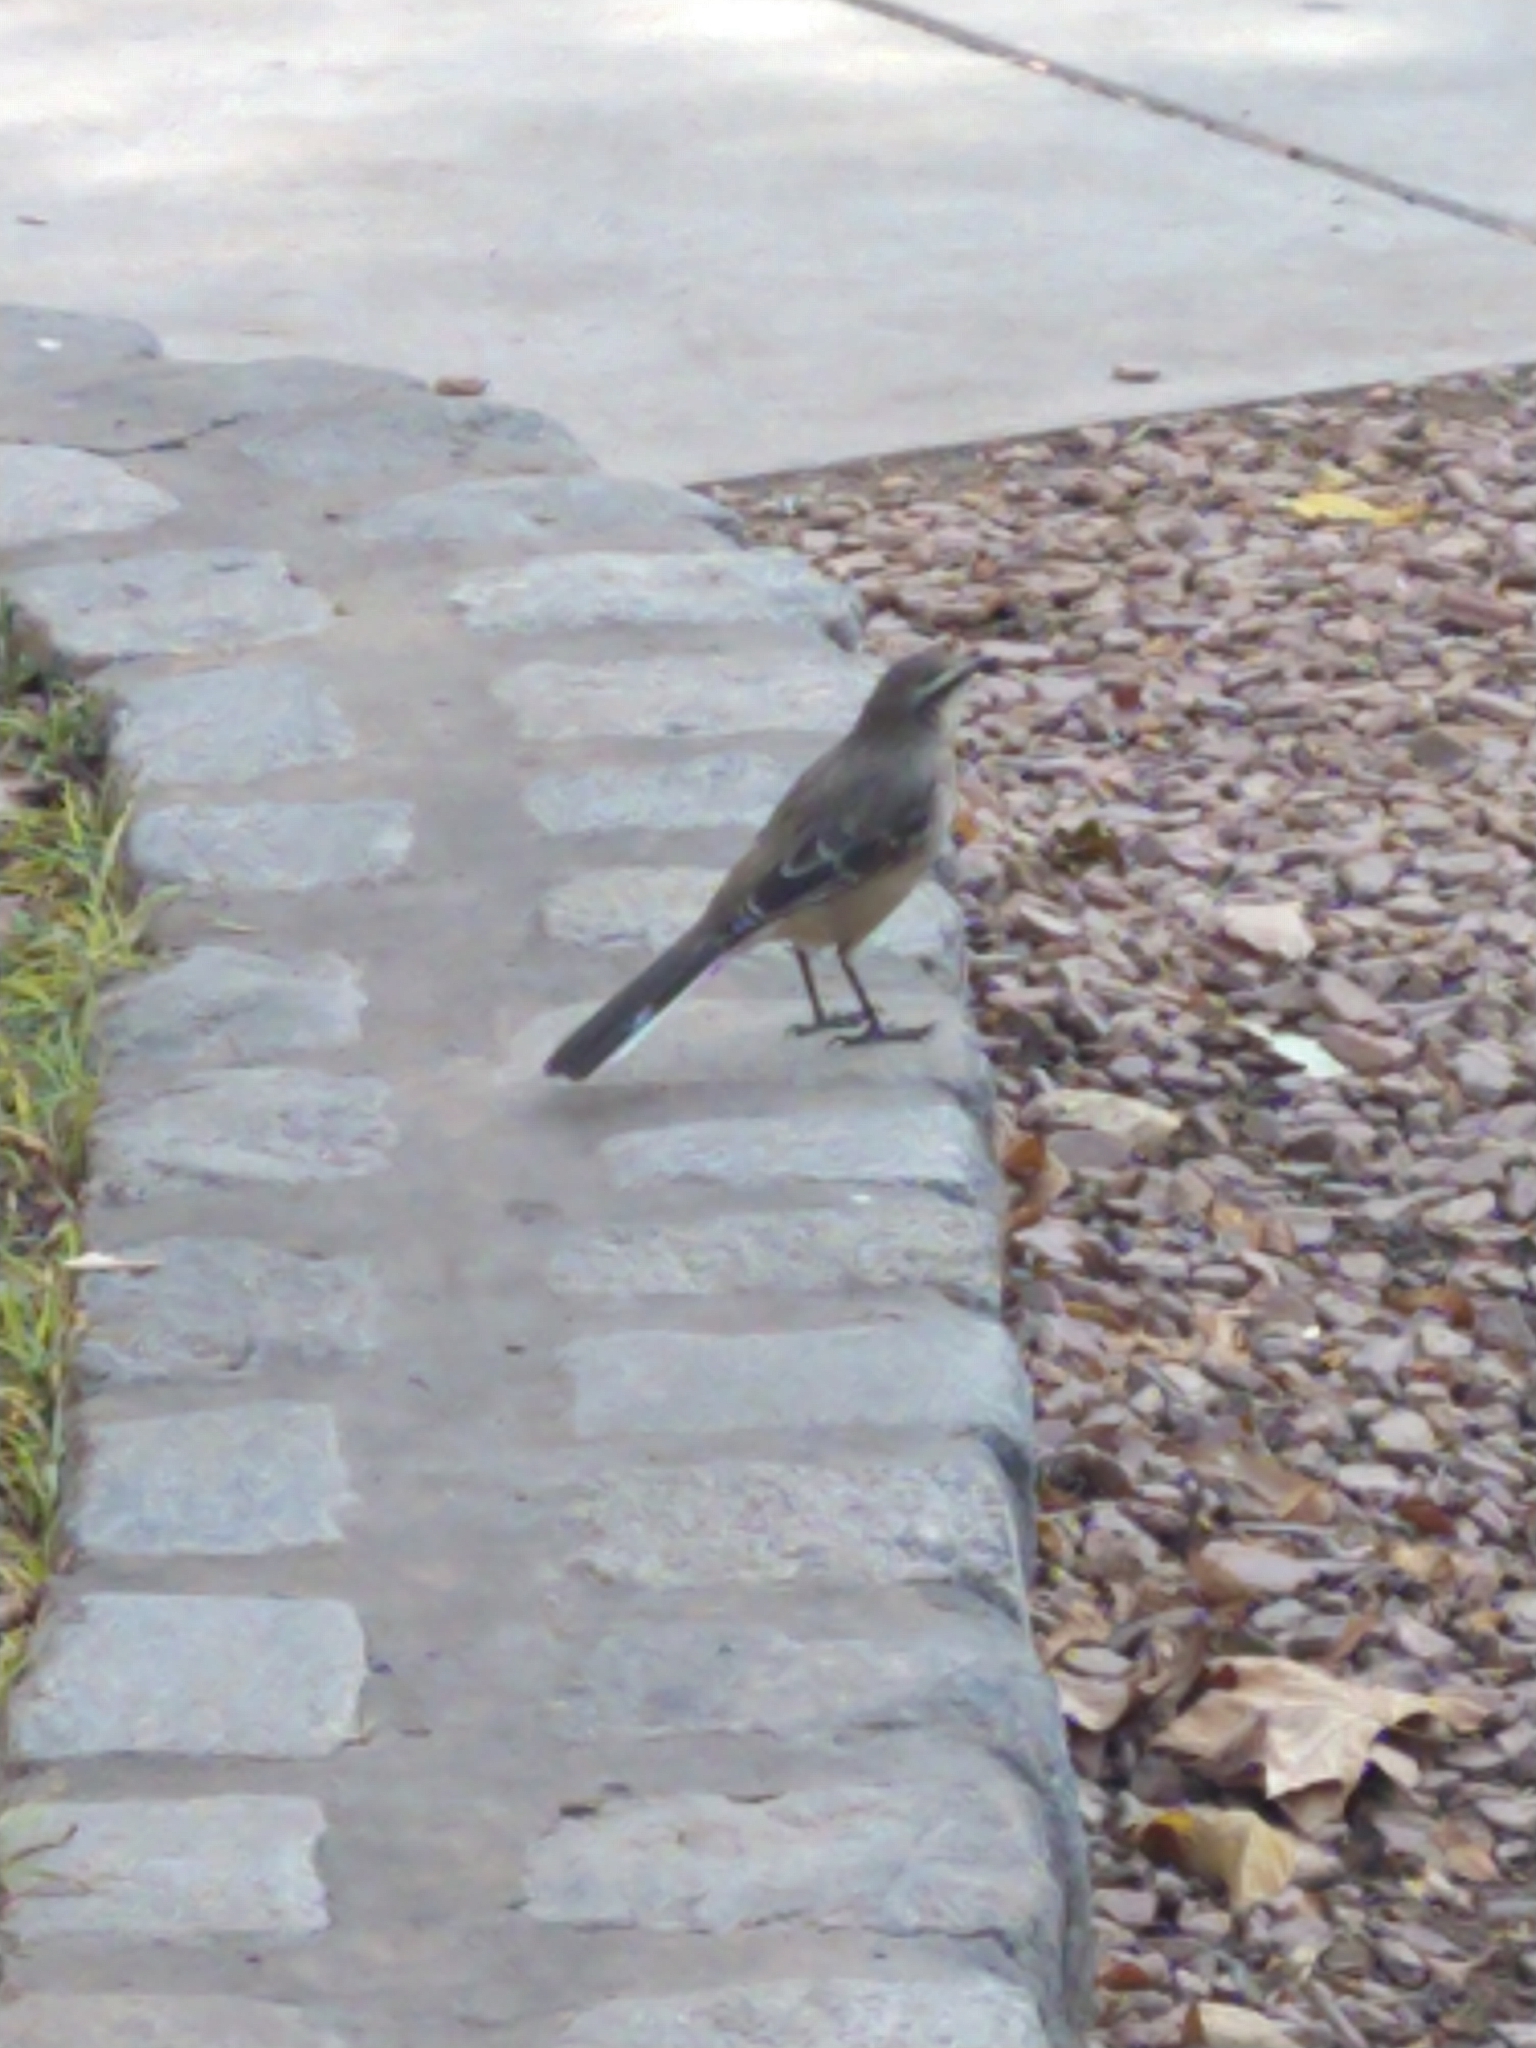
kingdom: Animalia
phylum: Chordata
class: Aves
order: Passeriformes
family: Mimidae
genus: Mimus
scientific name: Mimus saturninus
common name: Chalk-browed mockingbird
